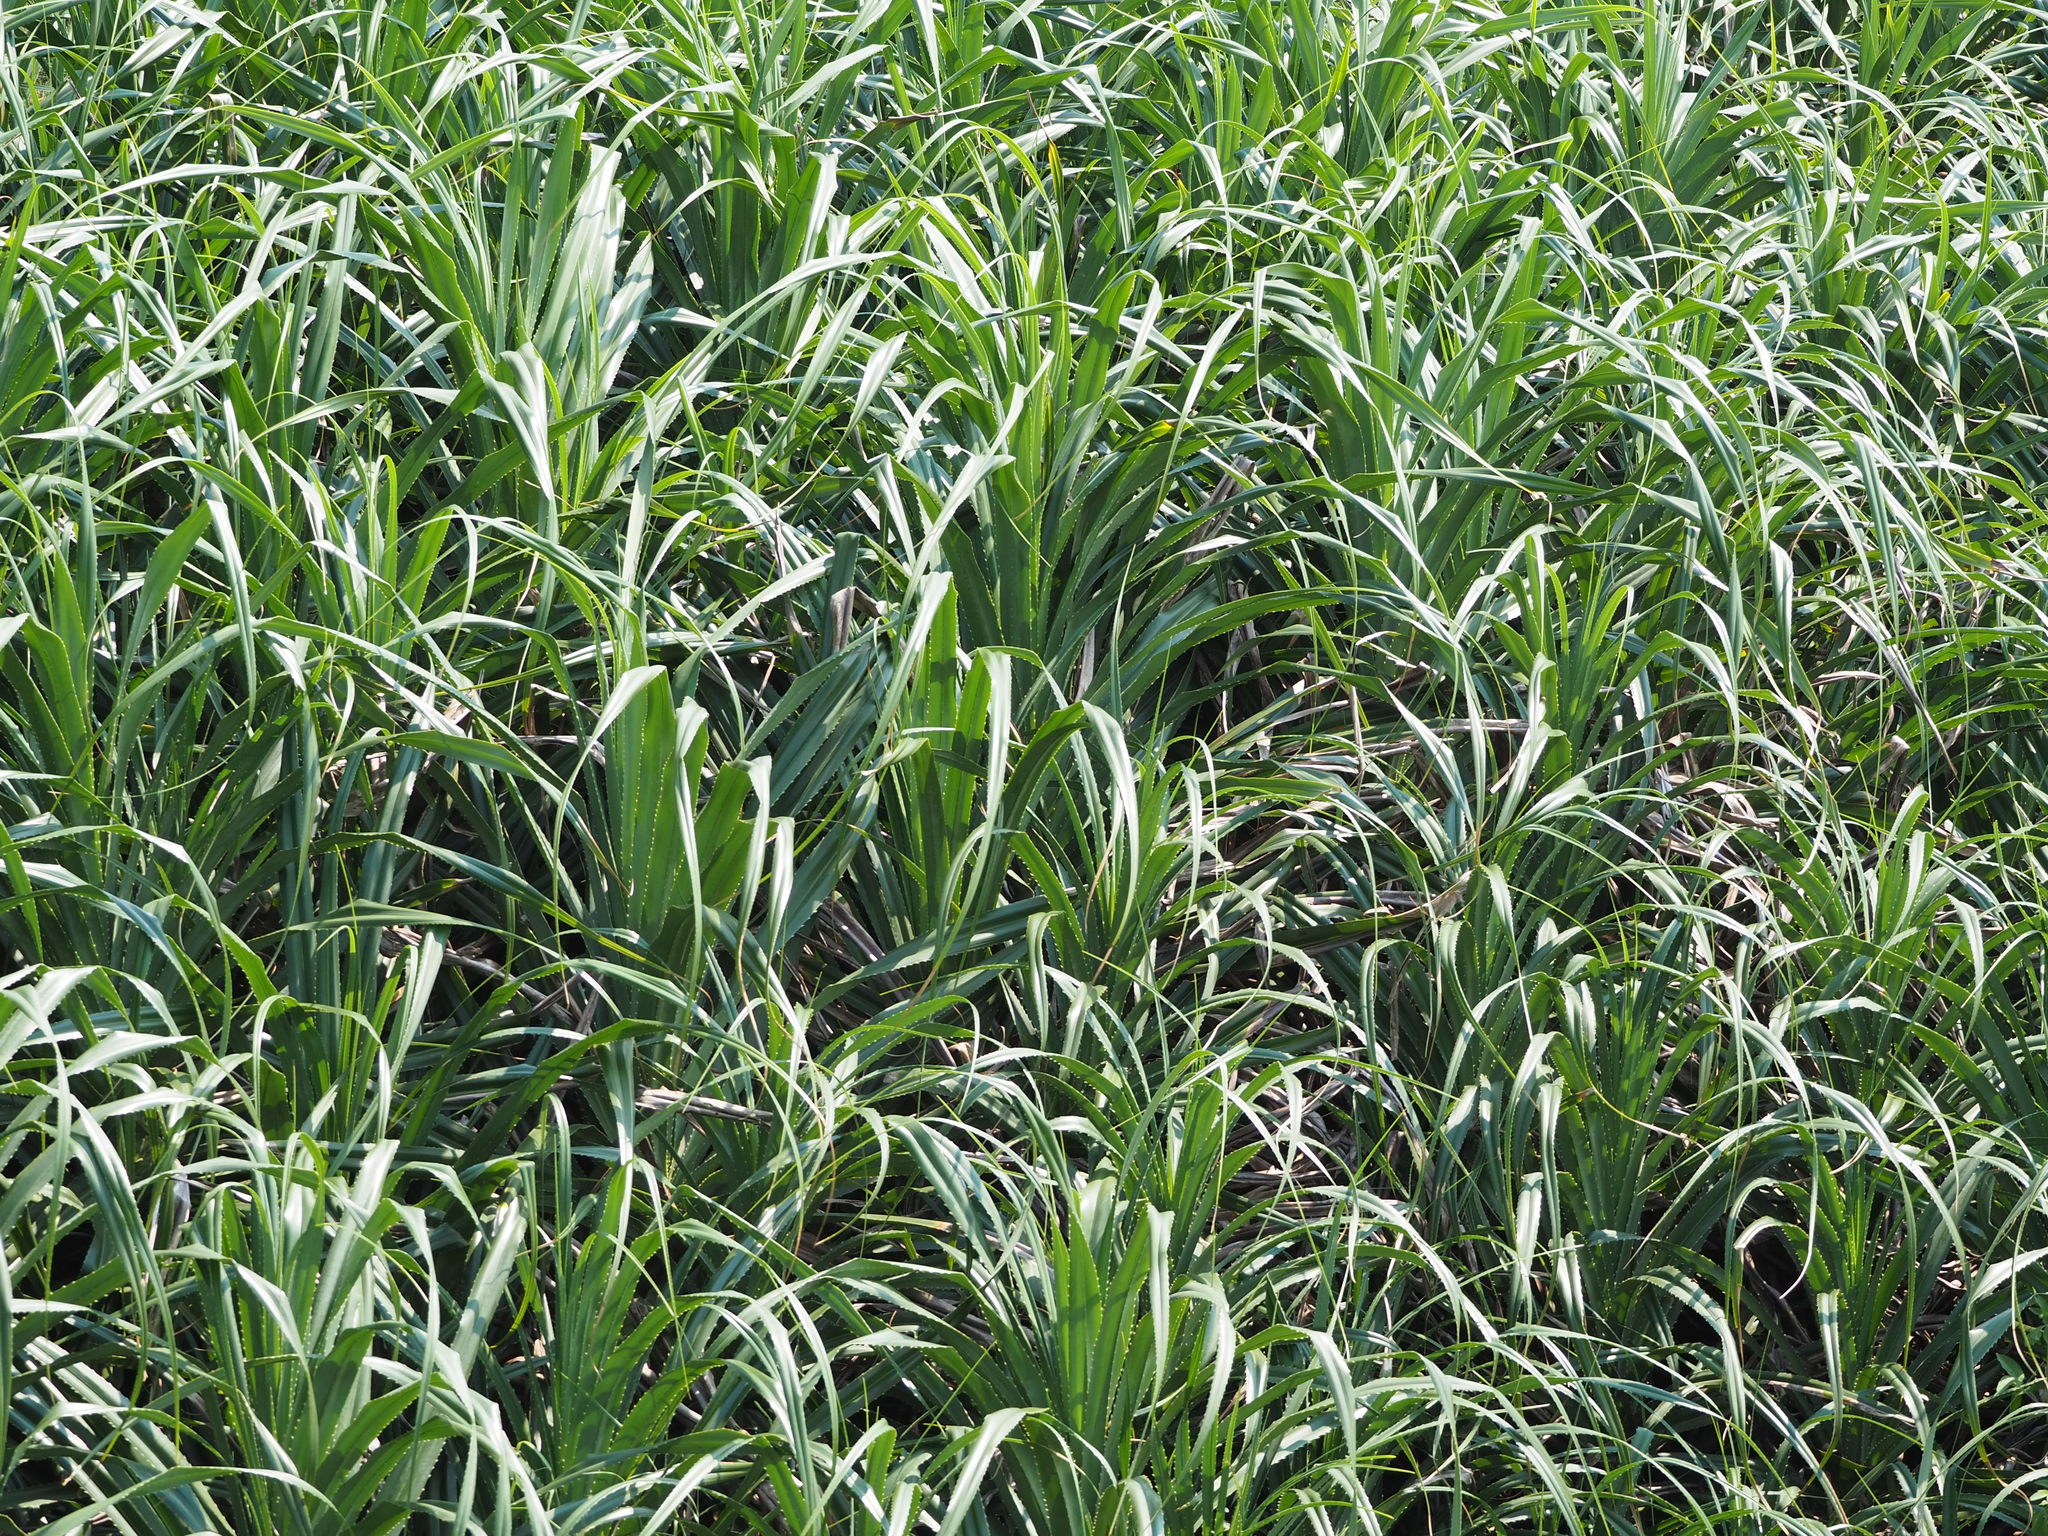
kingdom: Plantae
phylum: Tracheophyta
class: Liliopsida
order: Pandanales
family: Pandanaceae
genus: Pandanus
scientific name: Pandanus odorifer
